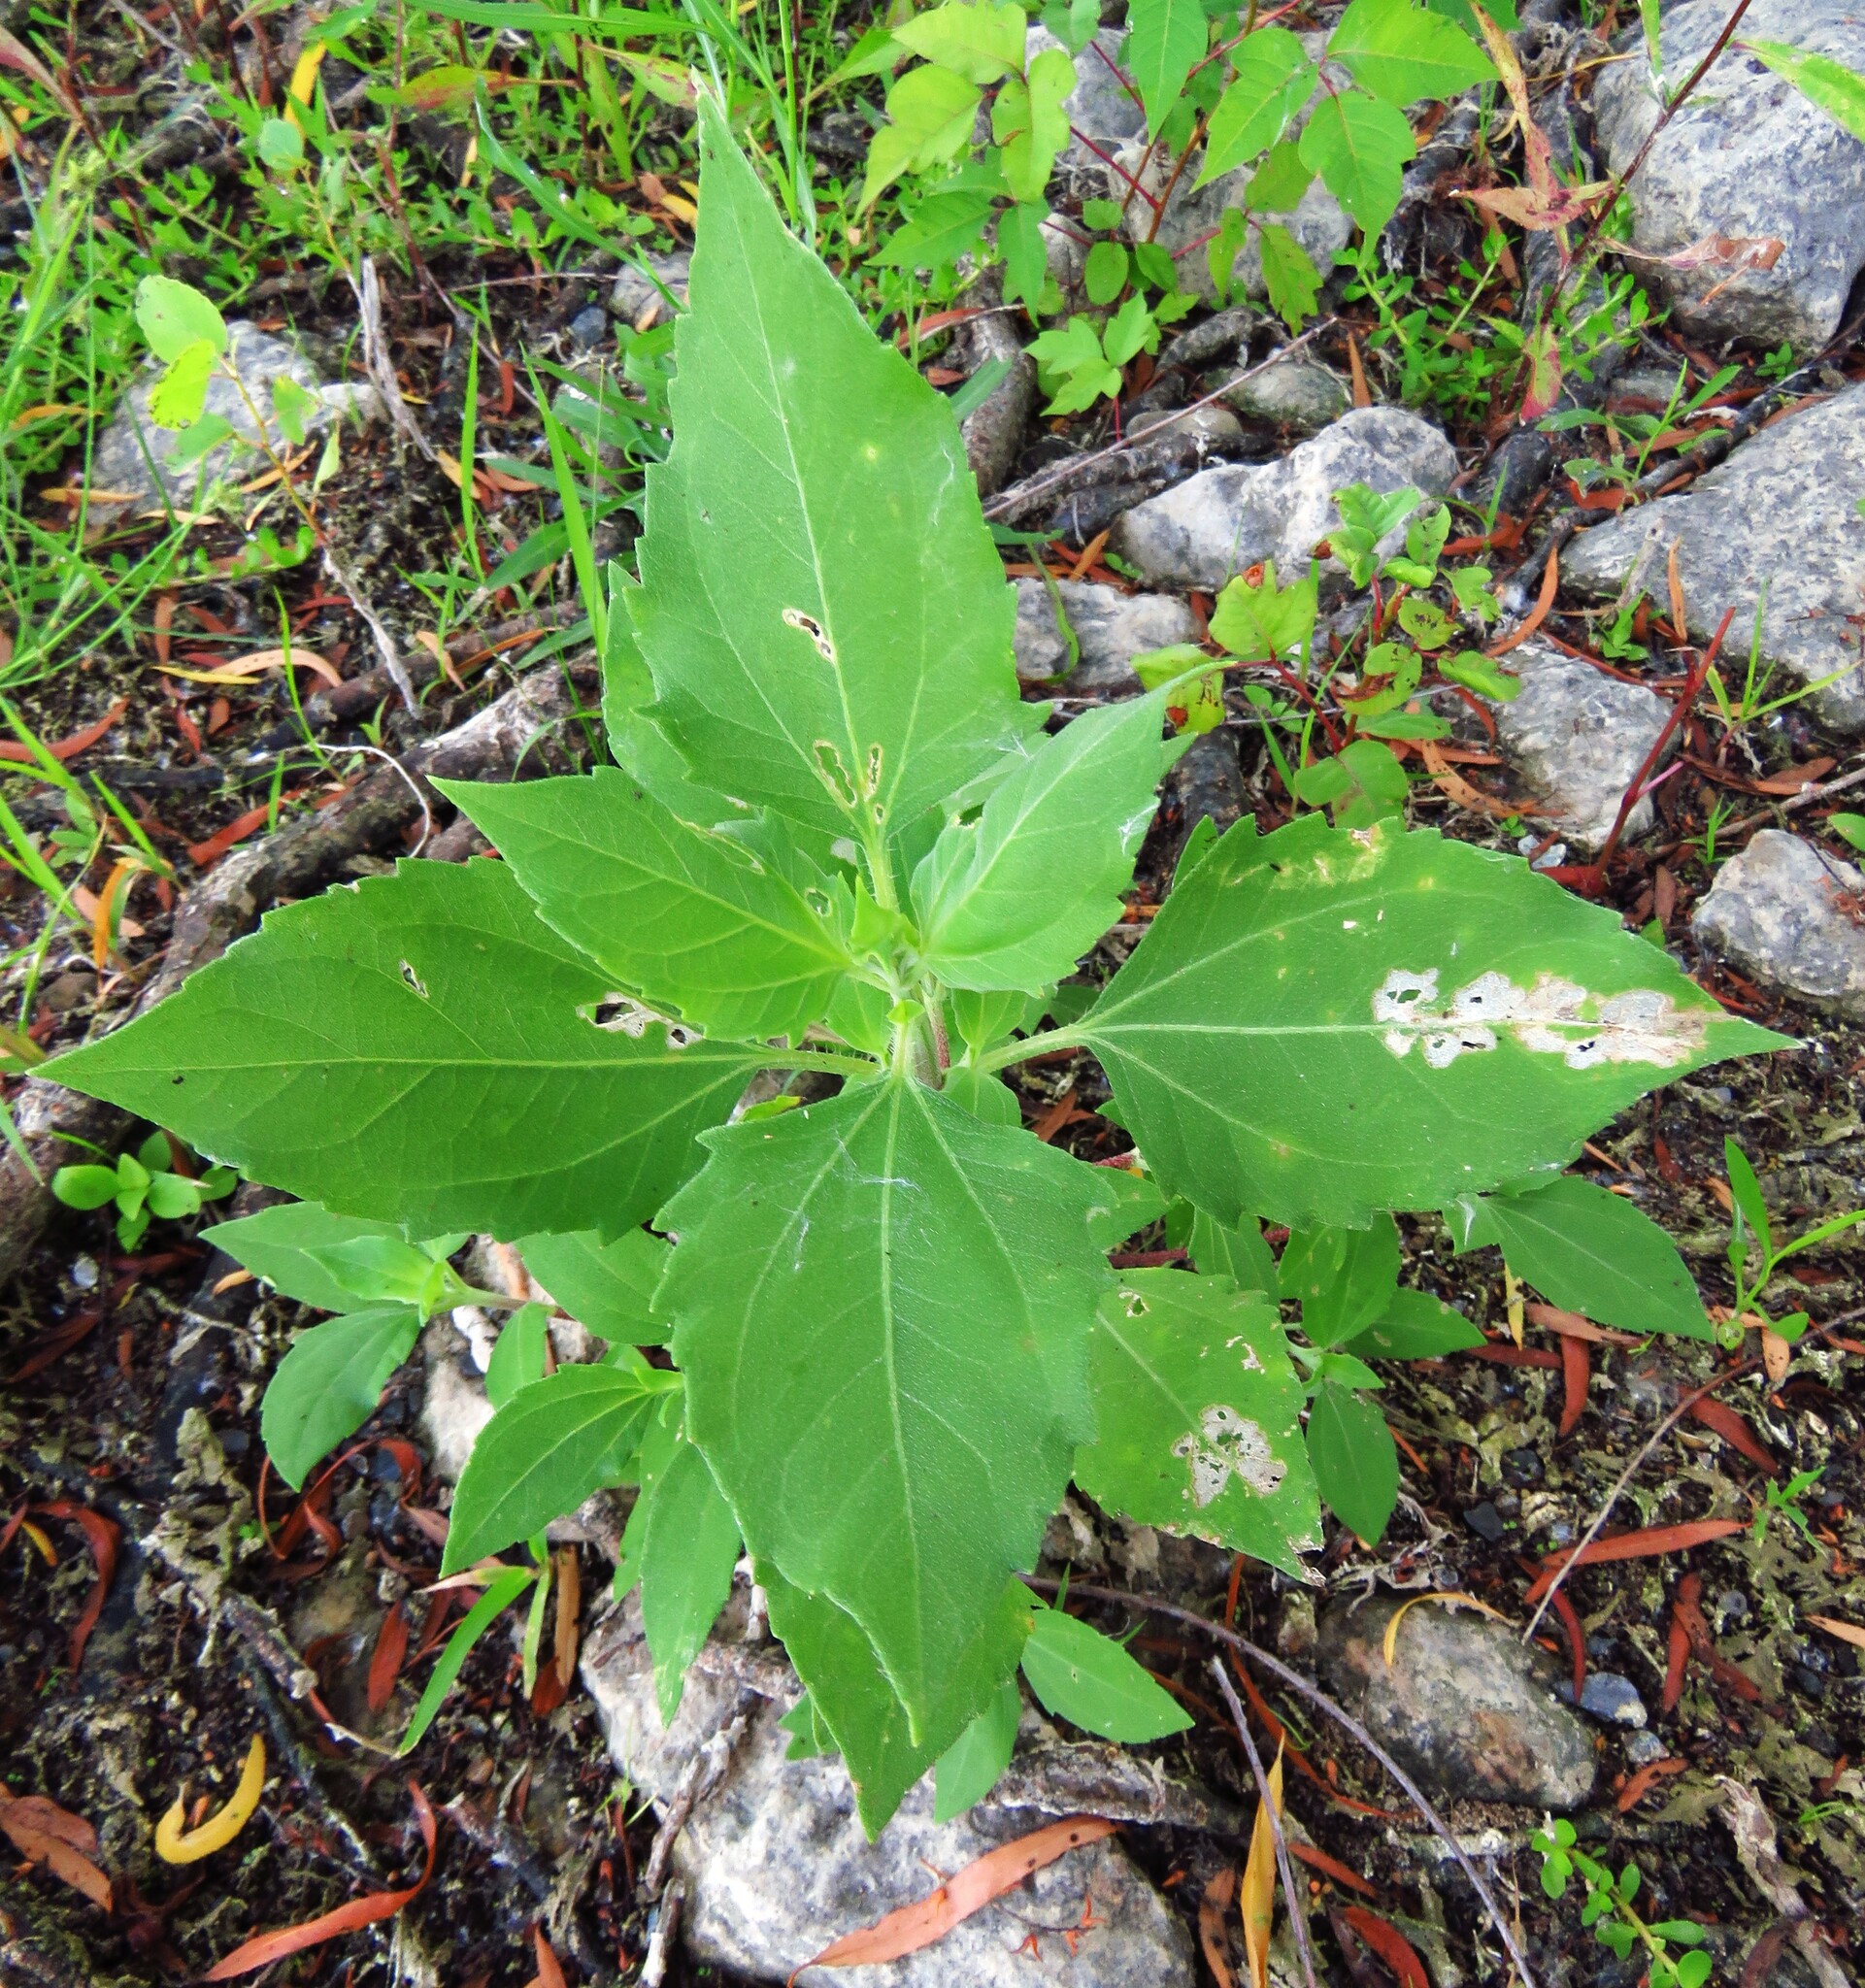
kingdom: Plantae
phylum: Tracheophyta
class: Magnoliopsida
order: Asterales
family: Asteraceae
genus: Iva
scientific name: Iva annua
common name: Marsh-elder
